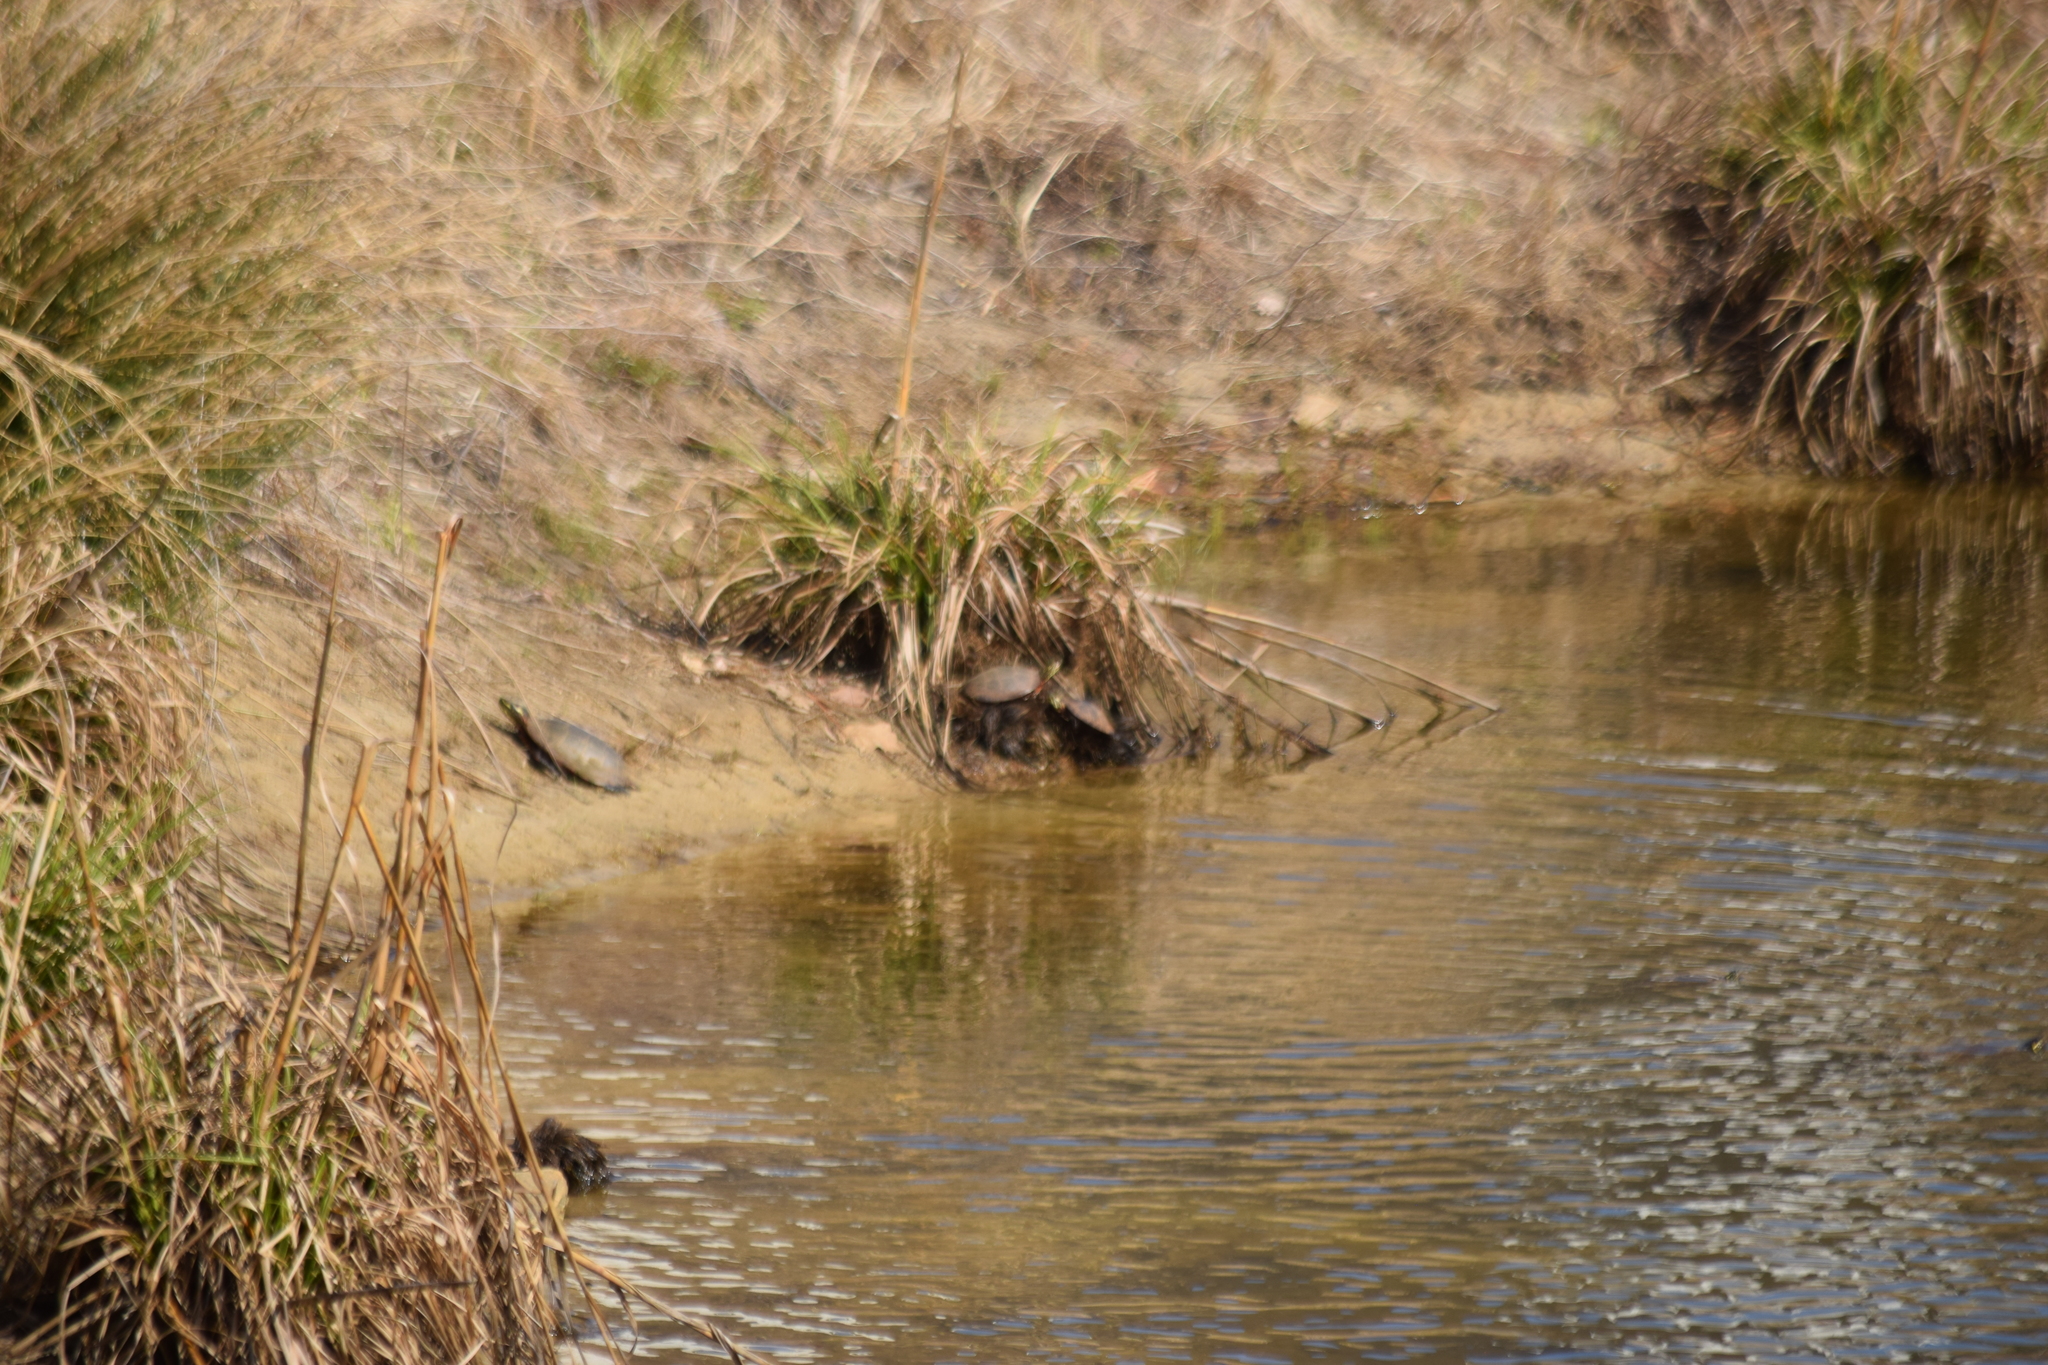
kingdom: Animalia
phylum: Chordata
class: Testudines
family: Emydidae
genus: Chrysemys
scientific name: Chrysemys picta
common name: Painted turtle
